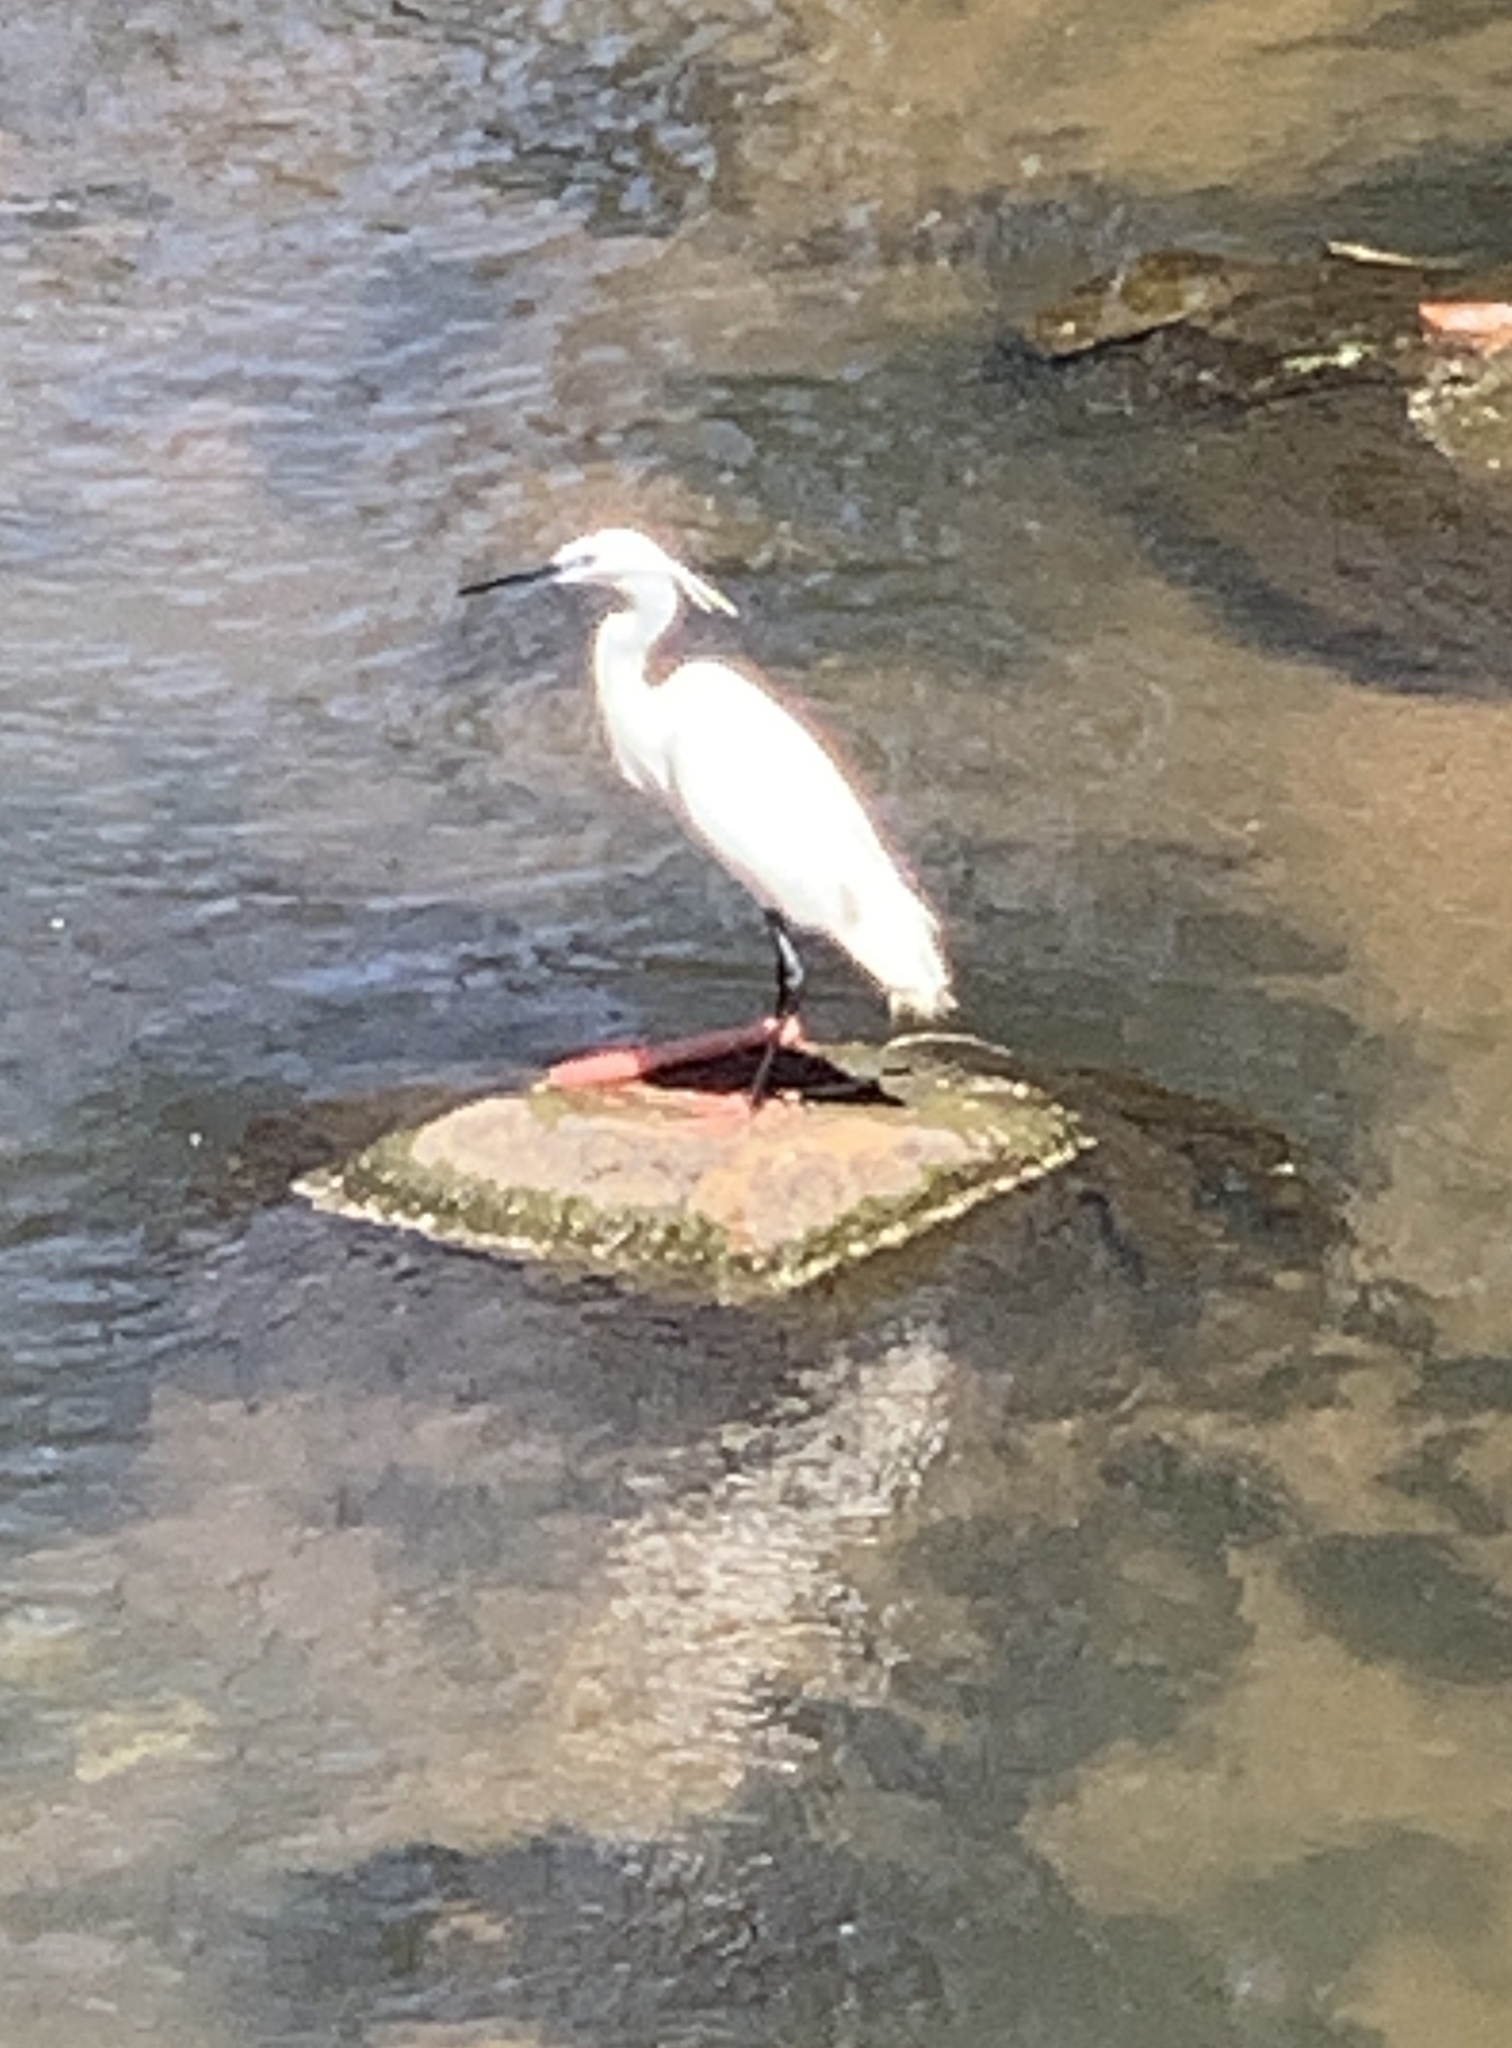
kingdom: Animalia
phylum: Chordata
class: Aves
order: Pelecaniformes
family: Ardeidae
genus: Egretta
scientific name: Egretta garzetta
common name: Little egret
